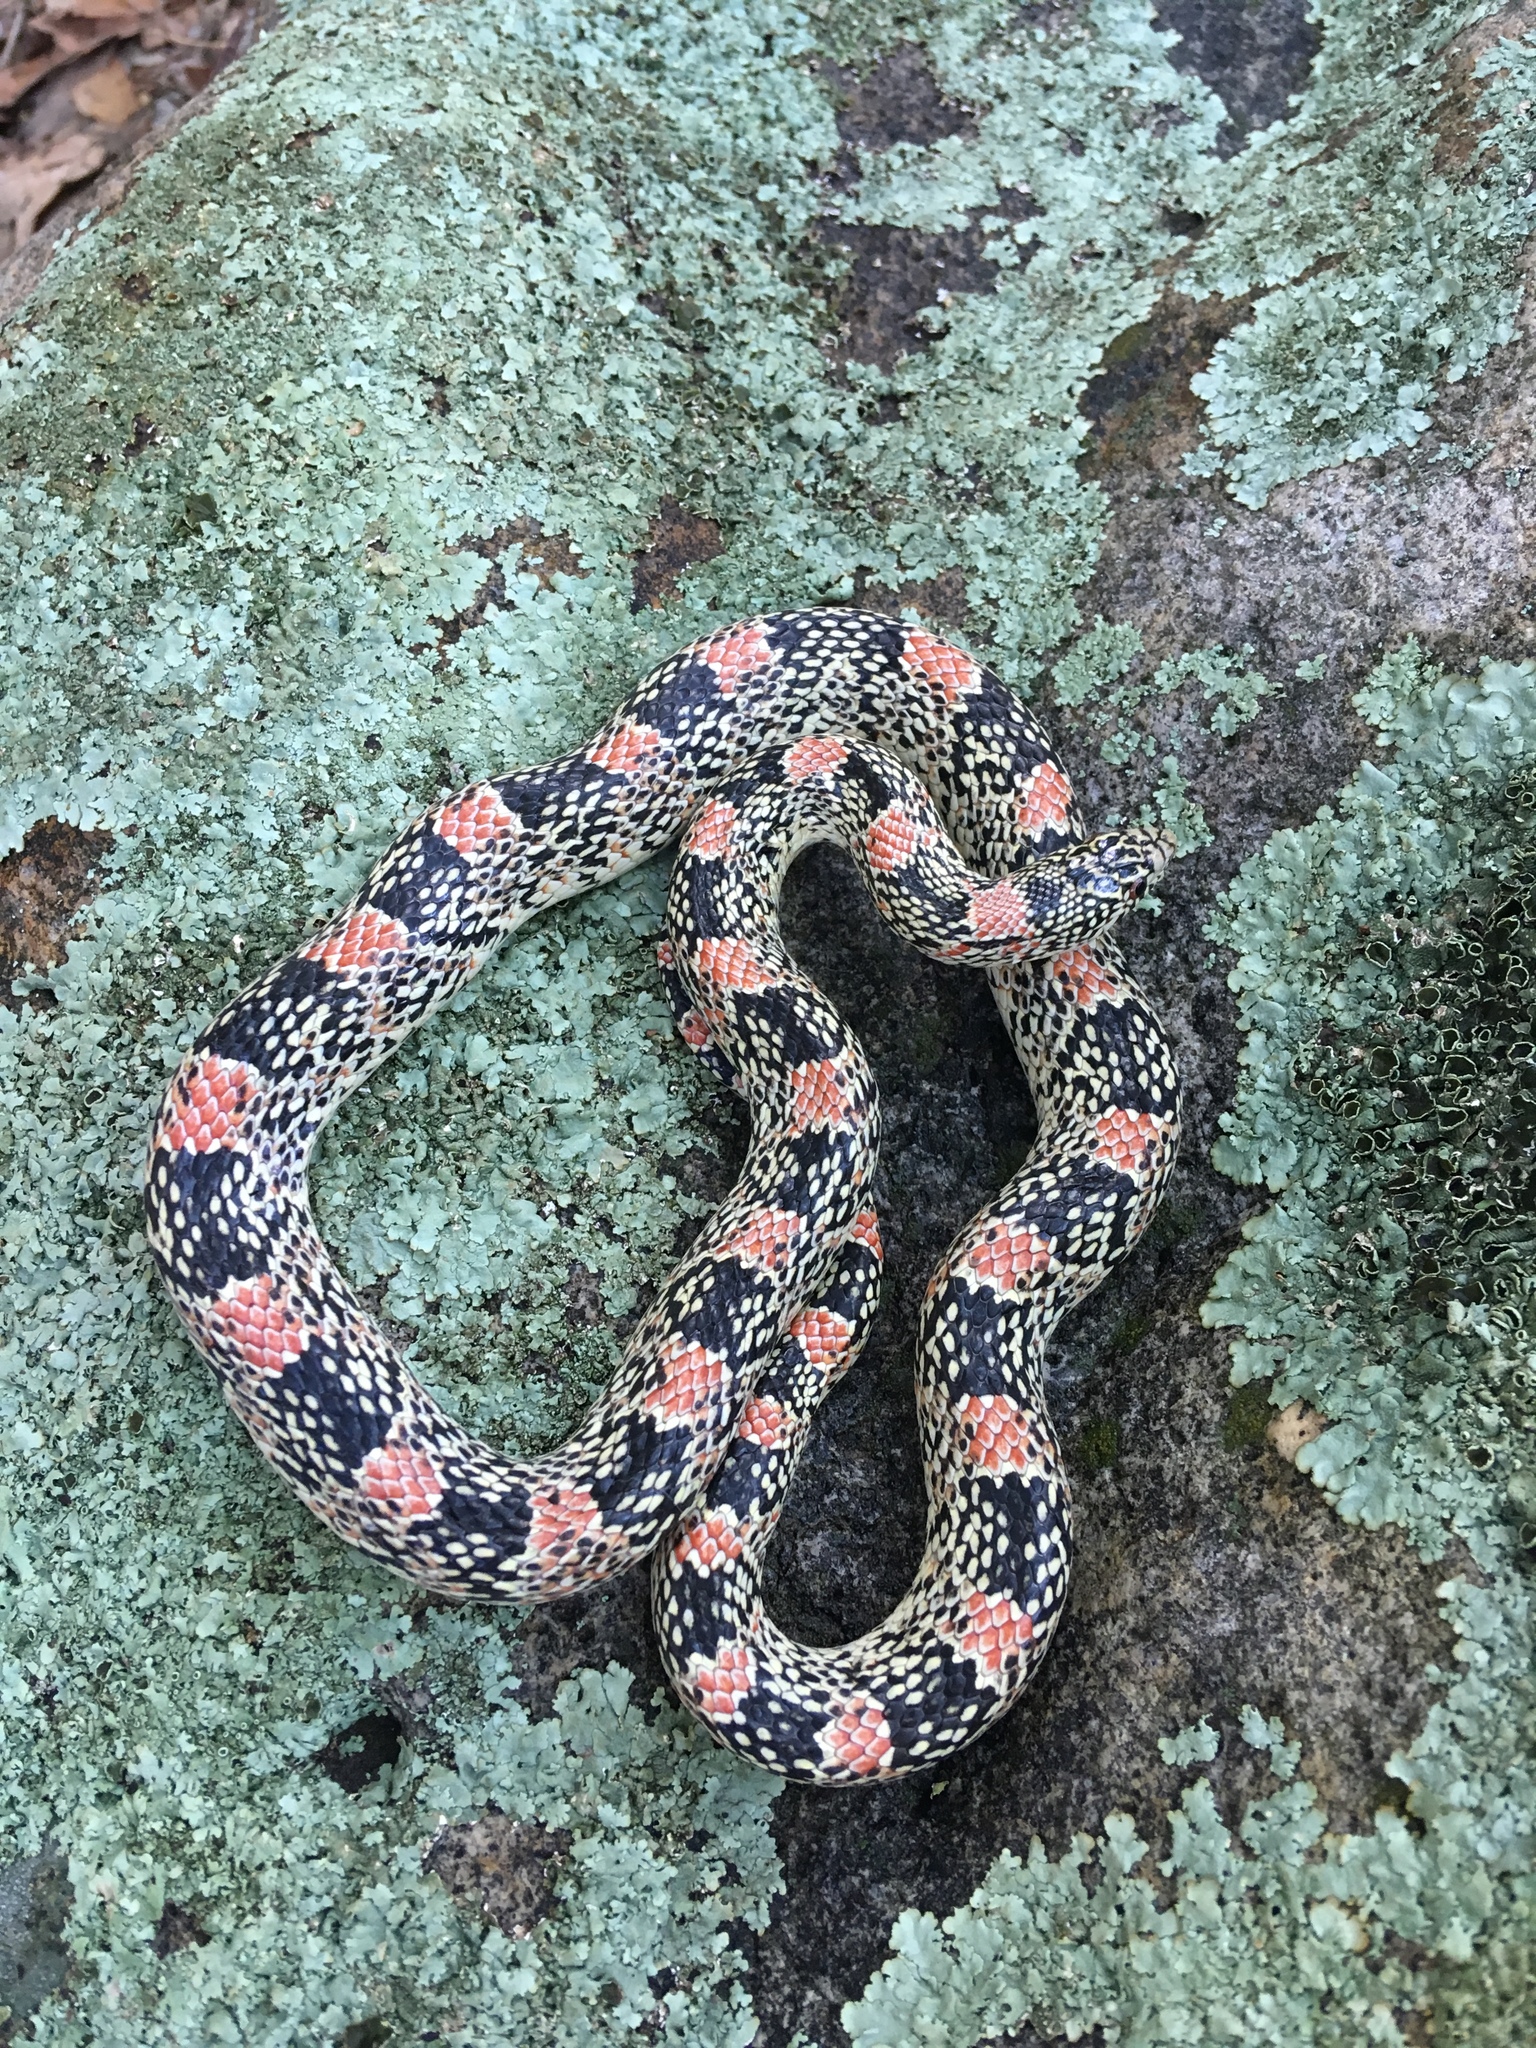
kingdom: Animalia
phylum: Chordata
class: Squamata
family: Colubridae
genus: Rhinocheilus
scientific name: Rhinocheilus lecontei
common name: Longnose snake
